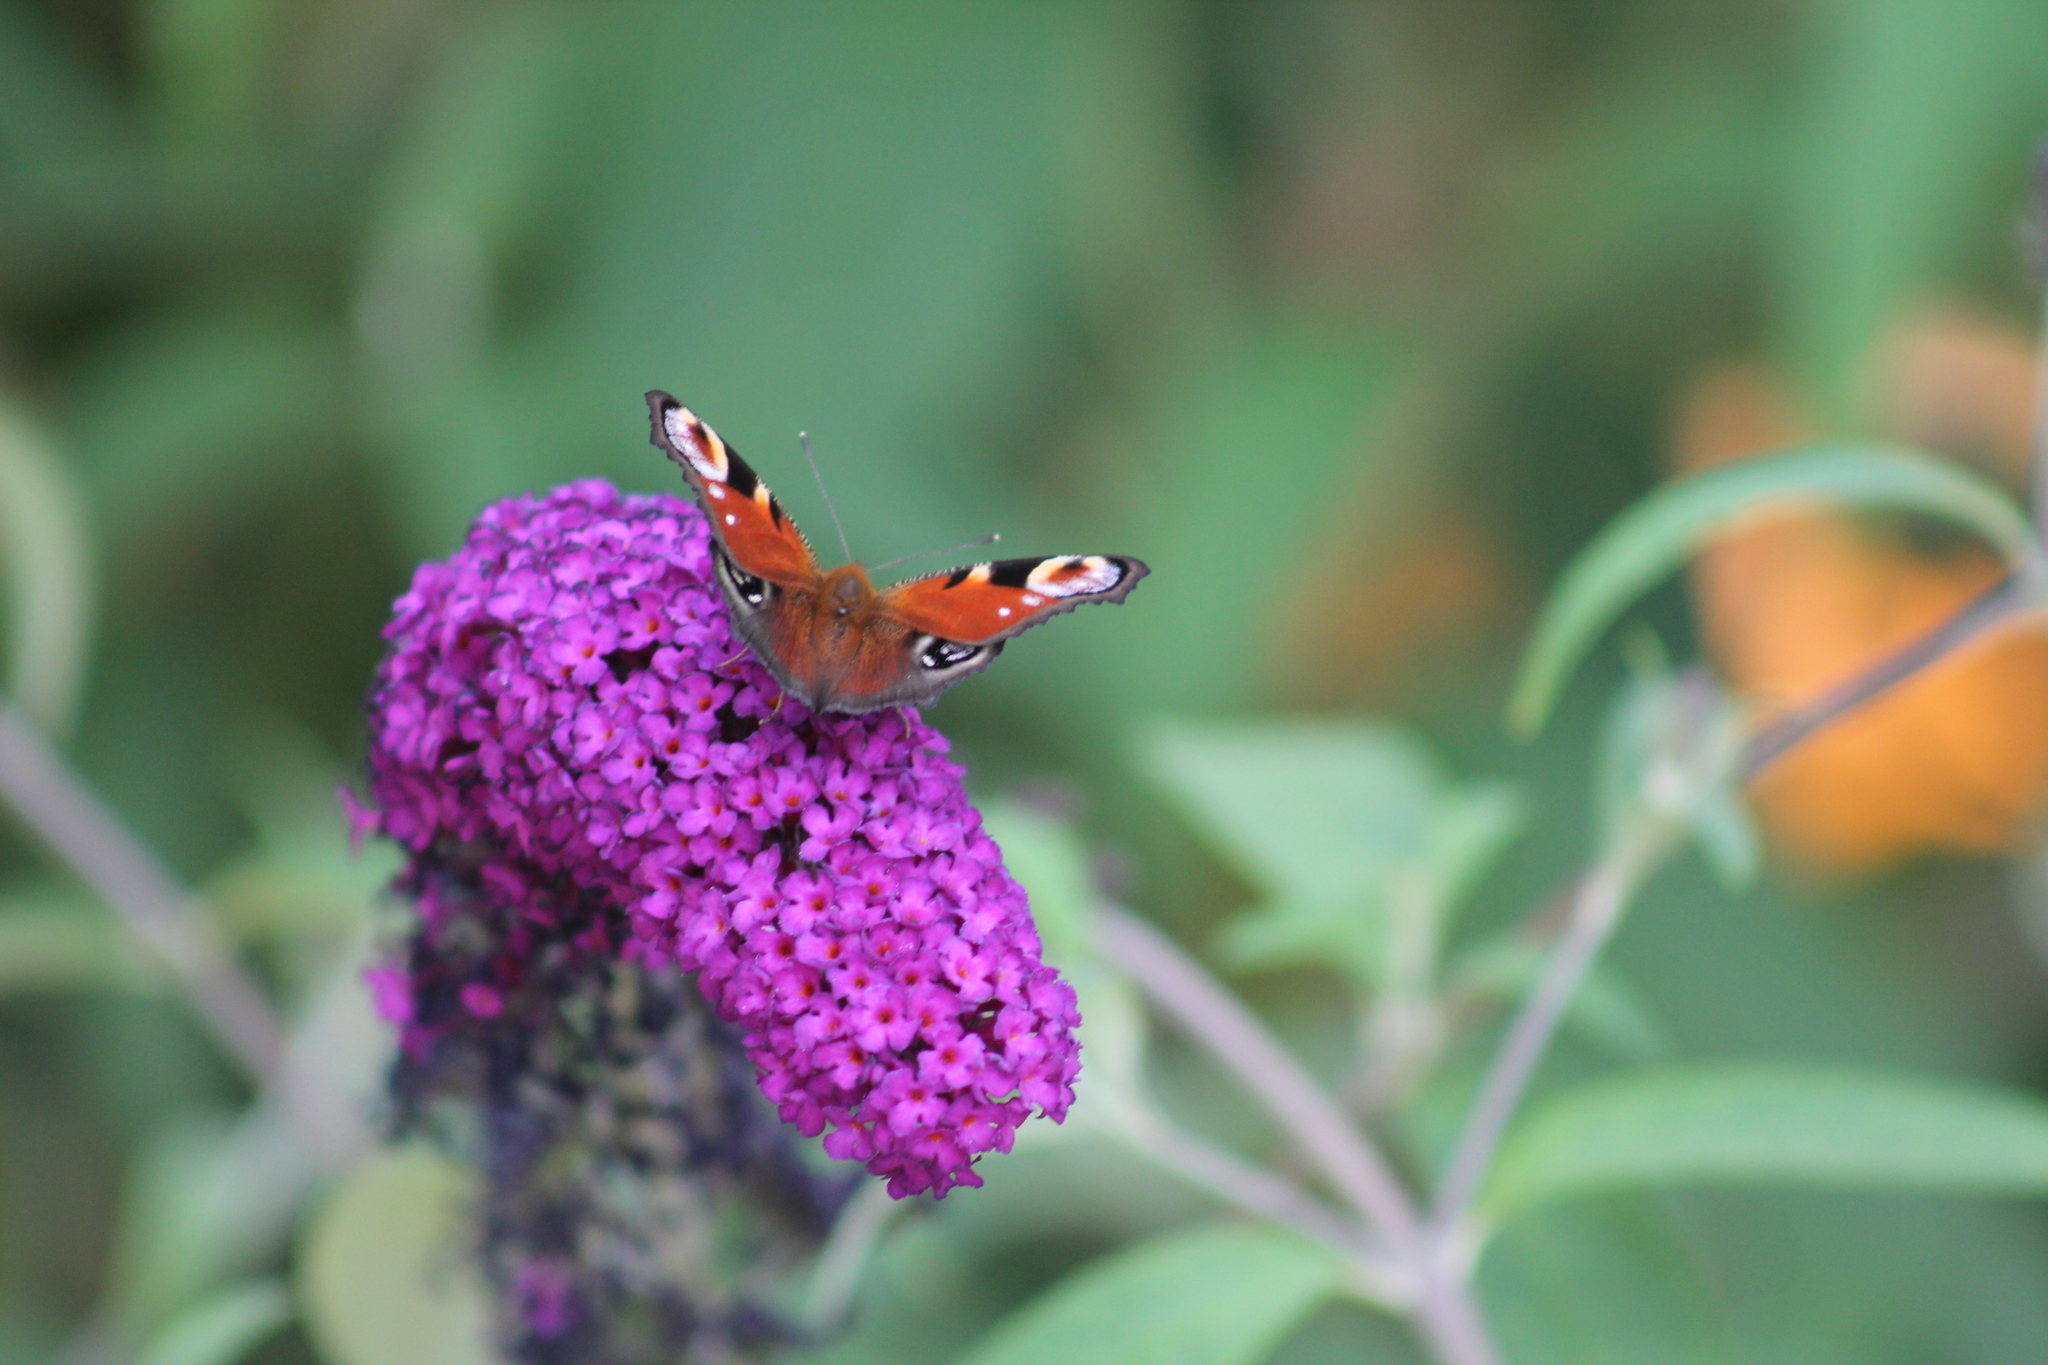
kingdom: Animalia
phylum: Arthropoda
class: Insecta
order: Lepidoptera
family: Nymphalidae
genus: Aglais
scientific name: Aglais io
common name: Peacock
